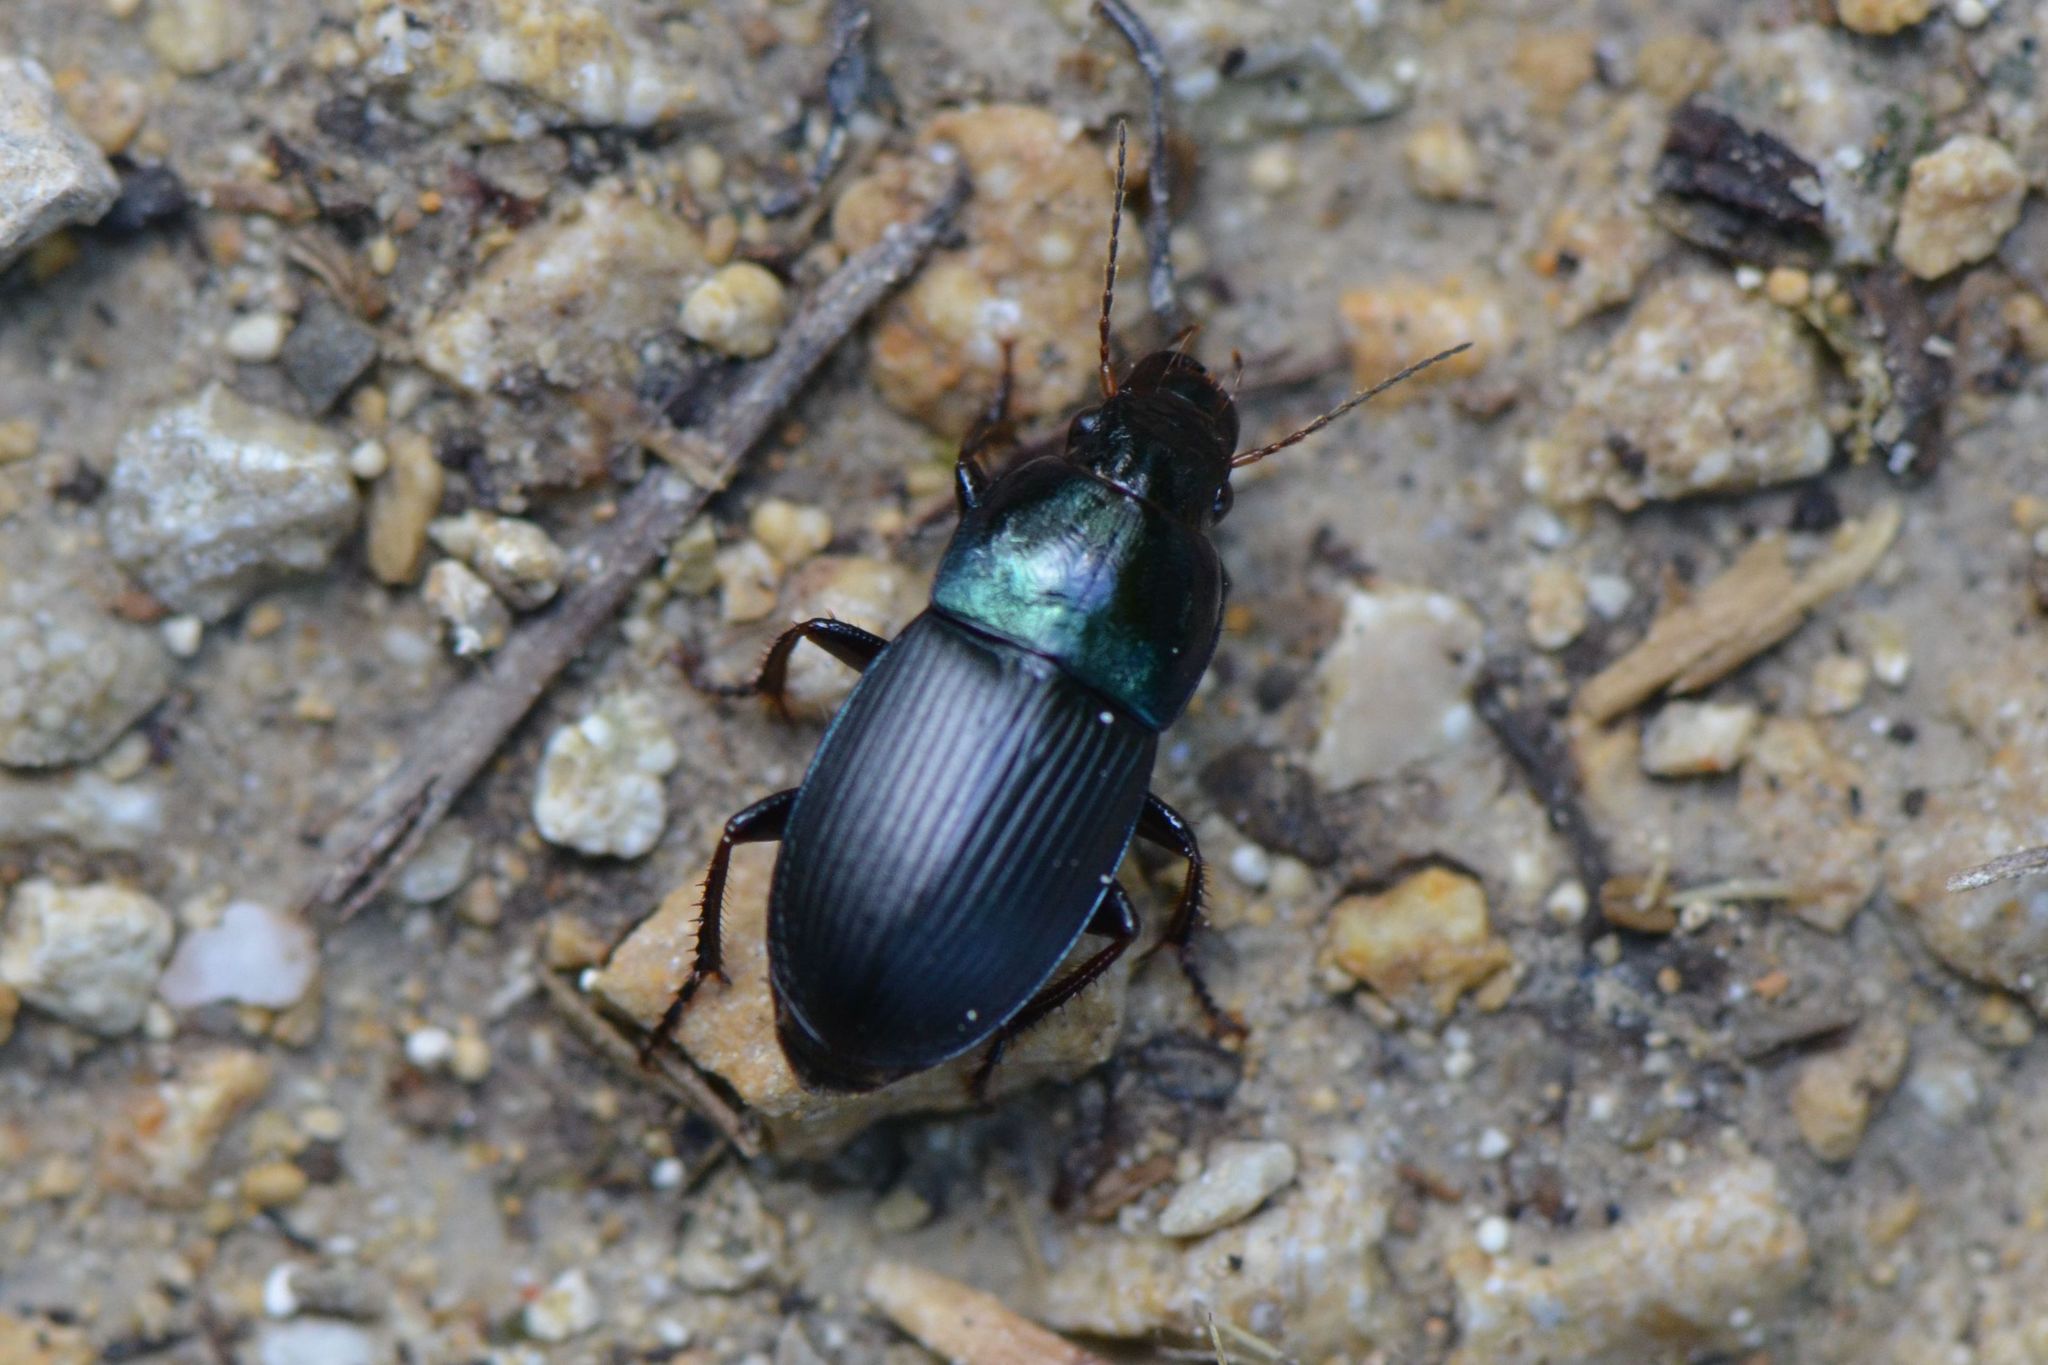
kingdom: Animalia
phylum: Arthropoda
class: Insecta
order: Coleoptera
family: Carabidae
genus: Harpalus
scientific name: Harpalus dimidiatus
